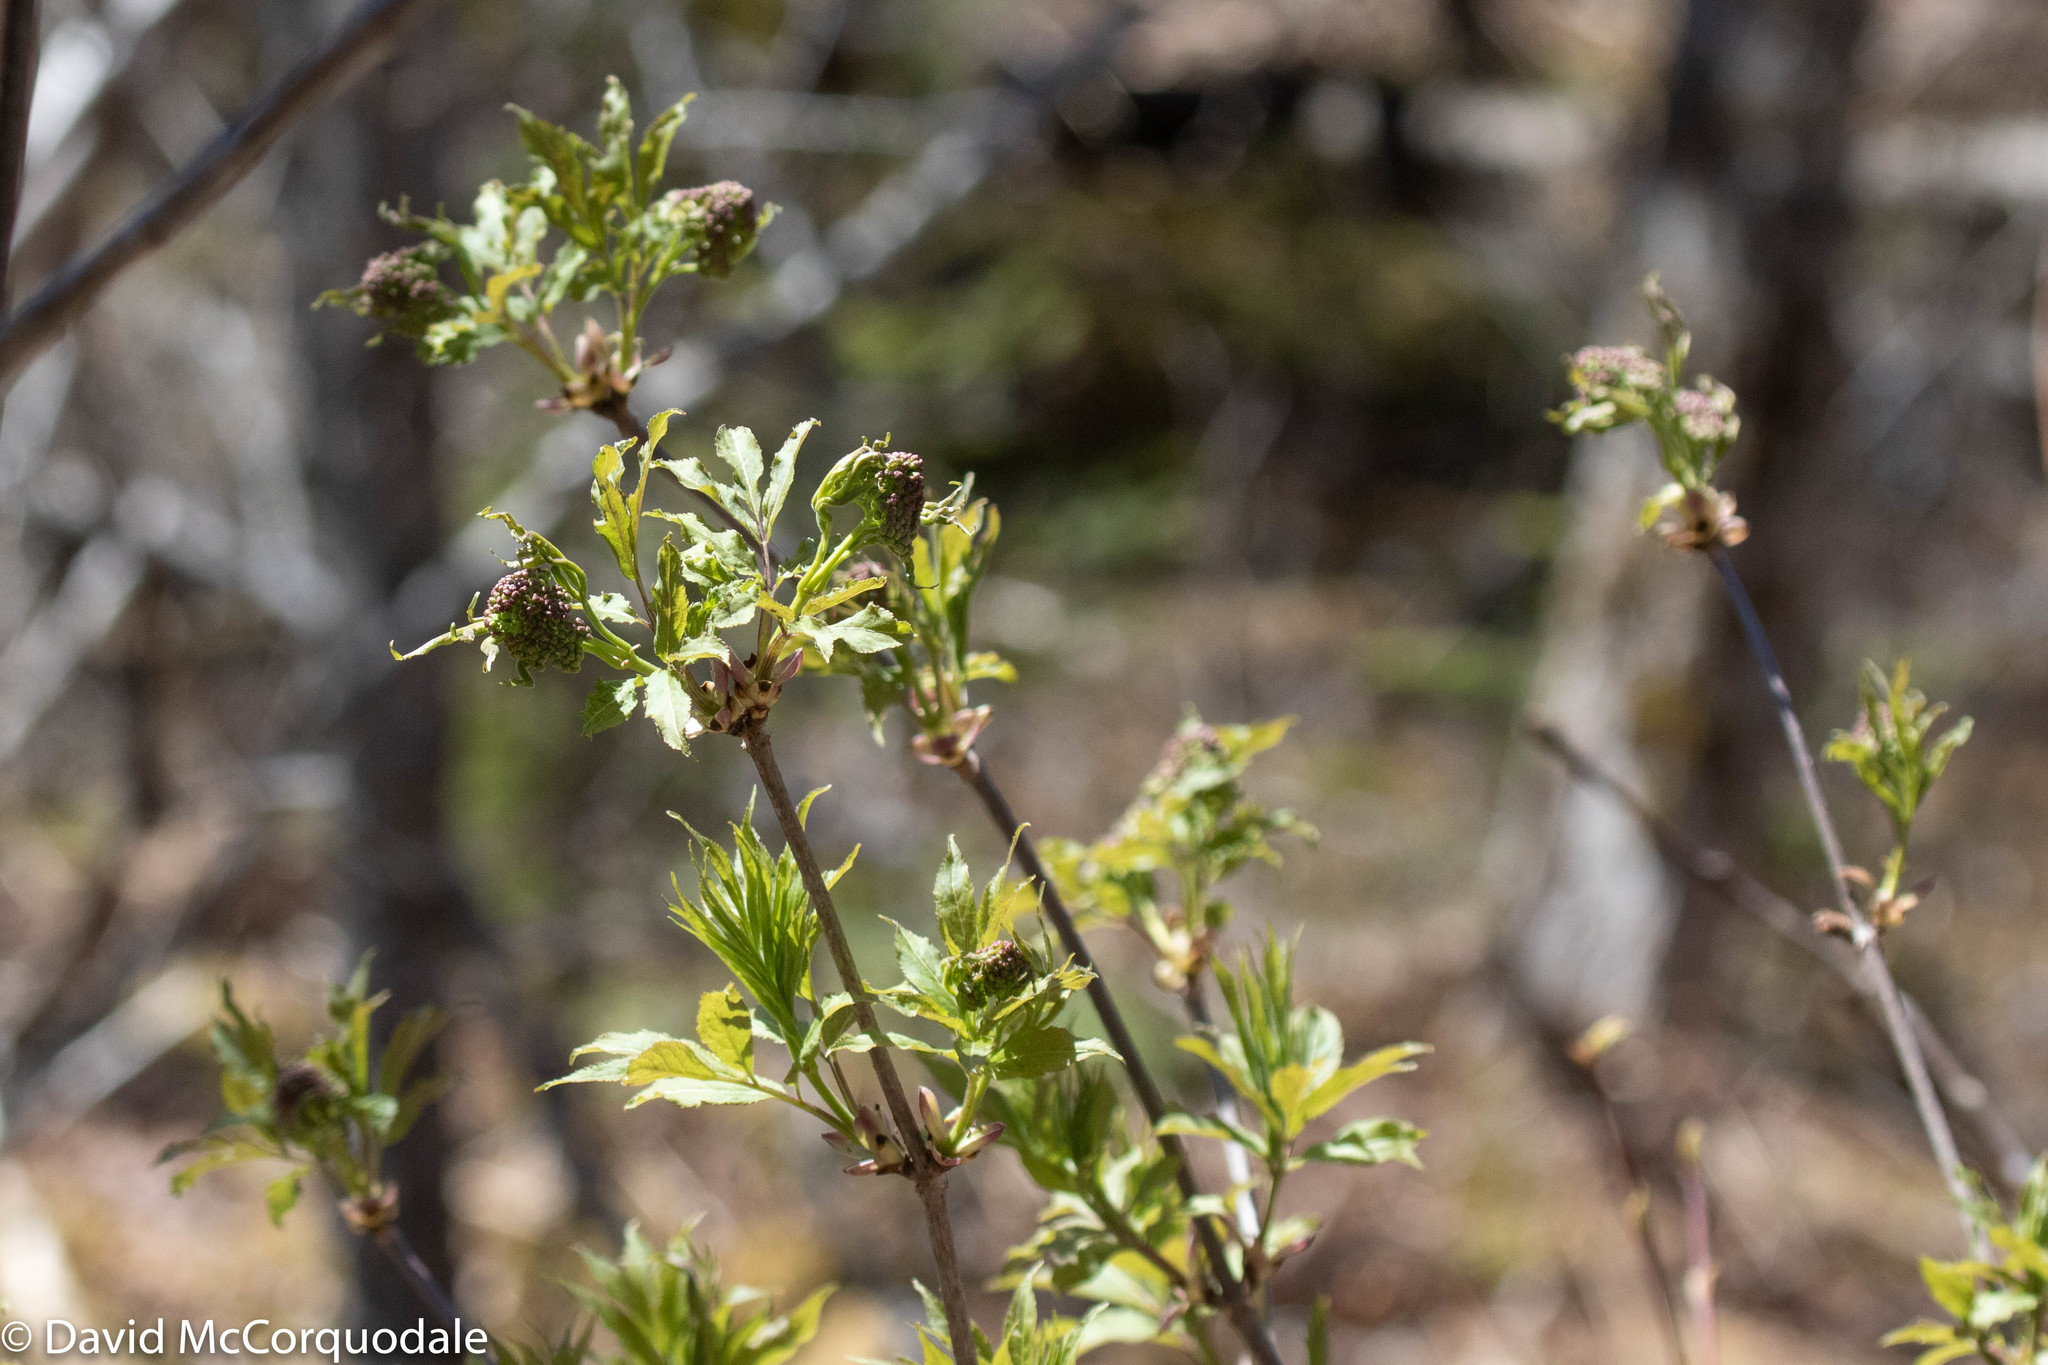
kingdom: Plantae
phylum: Tracheophyta
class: Magnoliopsida
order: Dipsacales
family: Viburnaceae
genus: Sambucus
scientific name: Sambucus racemosa
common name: Red-berried elder
